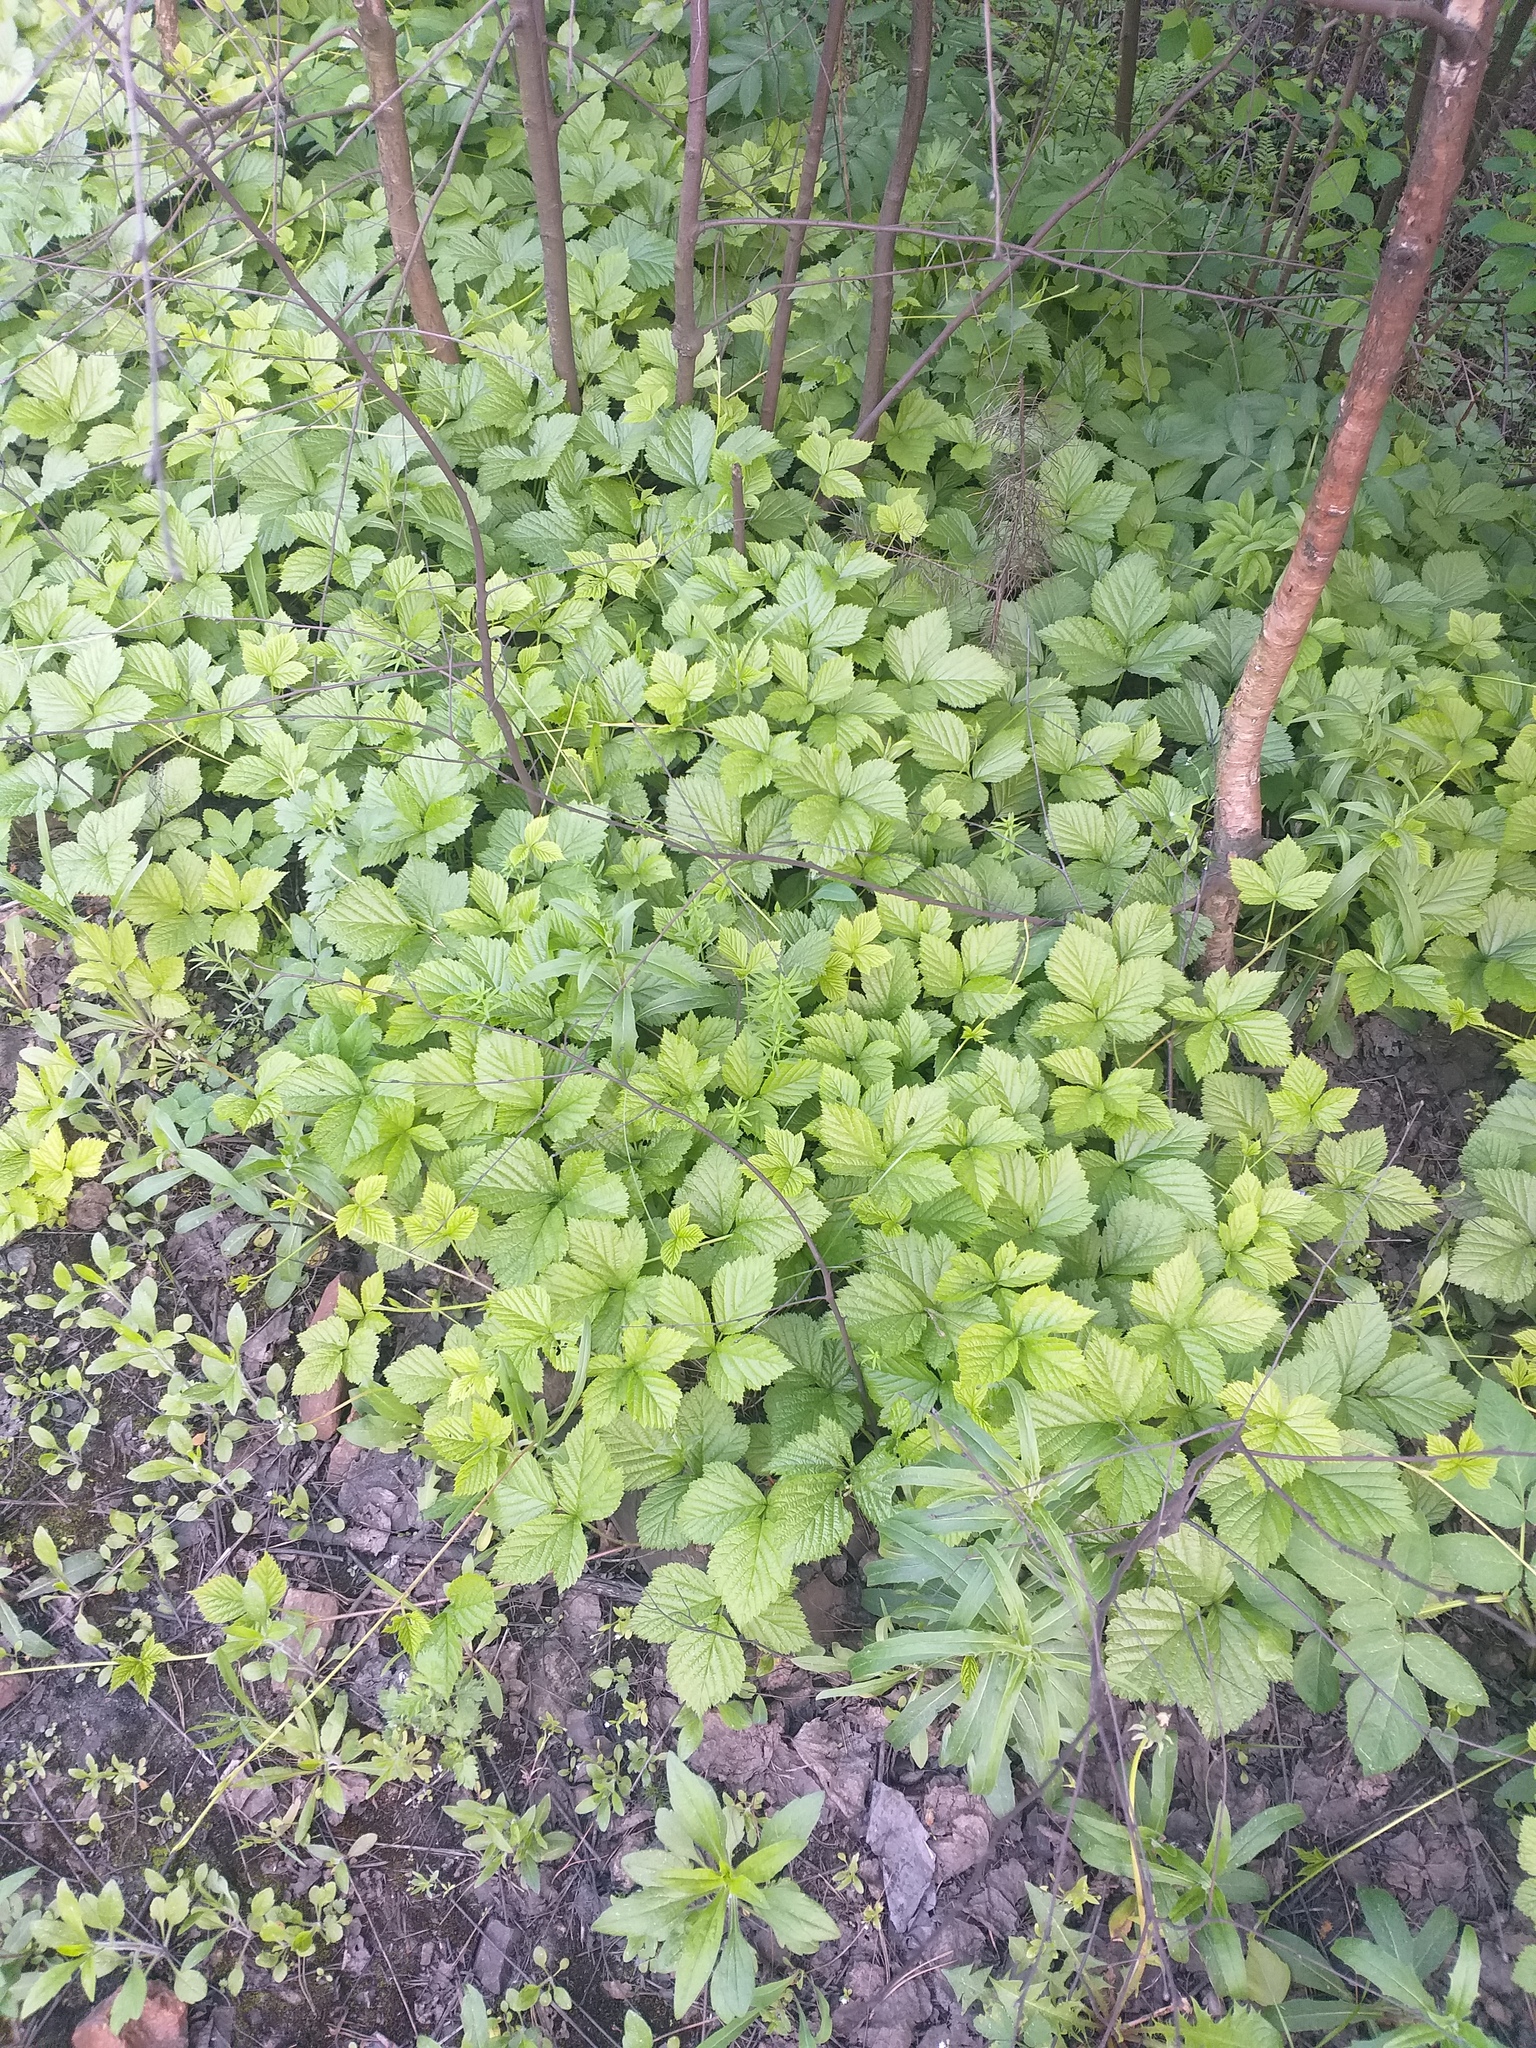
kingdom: Plantae
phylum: Tracheophyta
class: Magnoliopsida
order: Rosales
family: Rosaceae
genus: Rubus
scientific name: Rubus saxatilis
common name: Stone bramble
